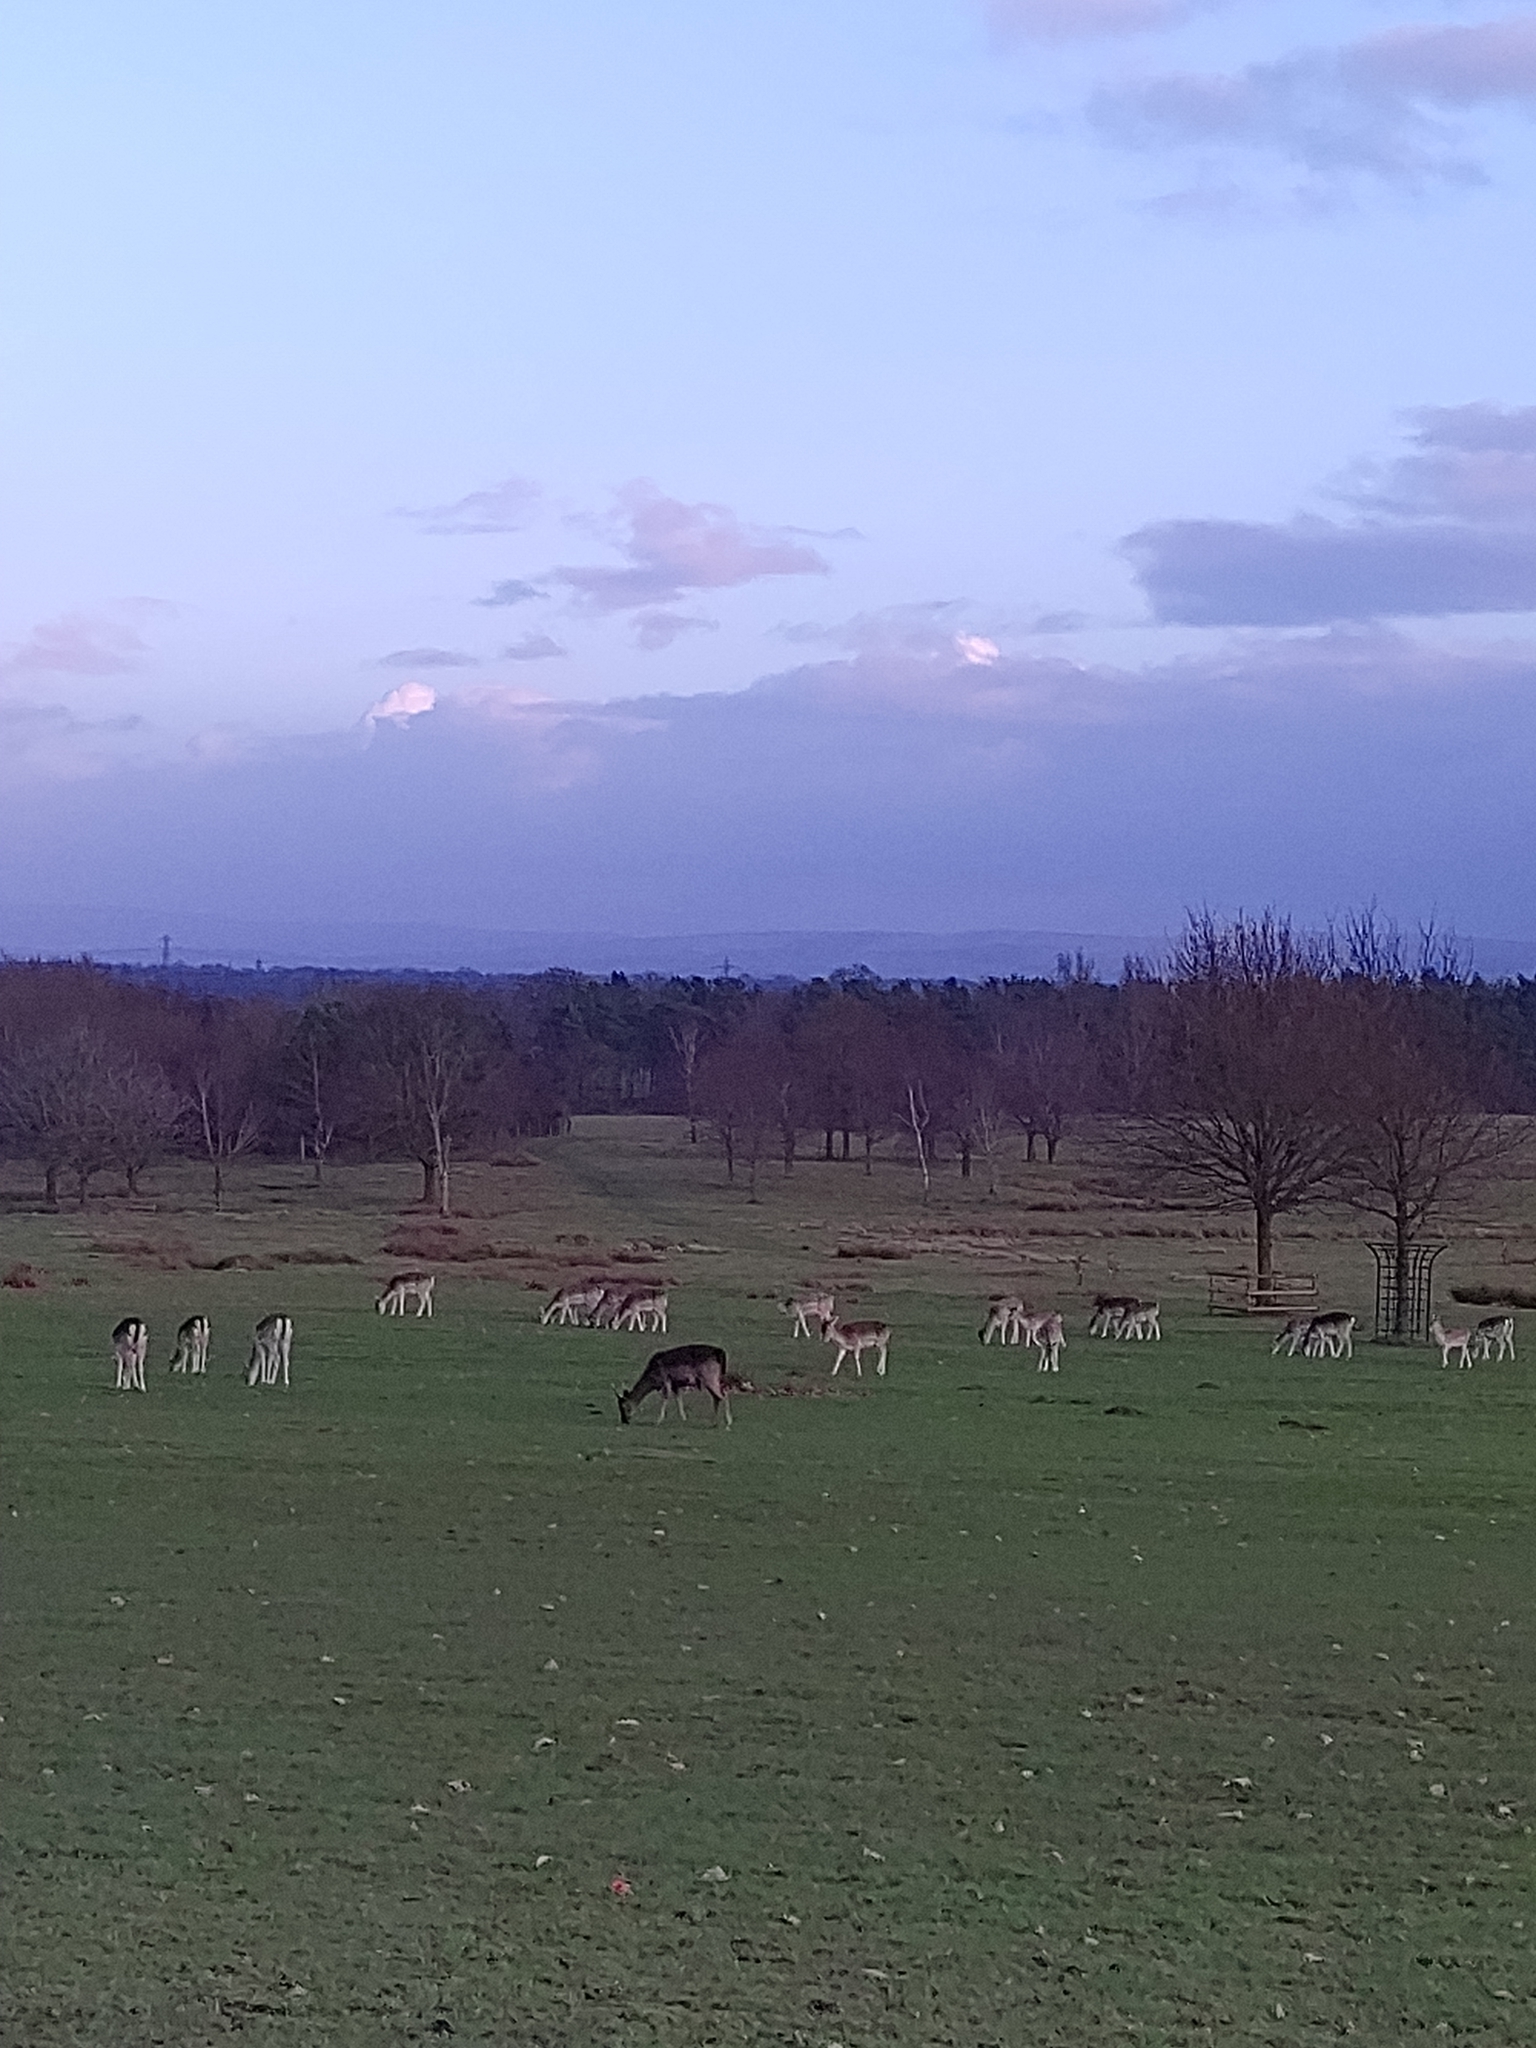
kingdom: Animalia
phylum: Chordata
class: Mammalia
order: Artiodactyla
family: Cervidae
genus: Dama
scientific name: Dama dama
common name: Fallow deer
